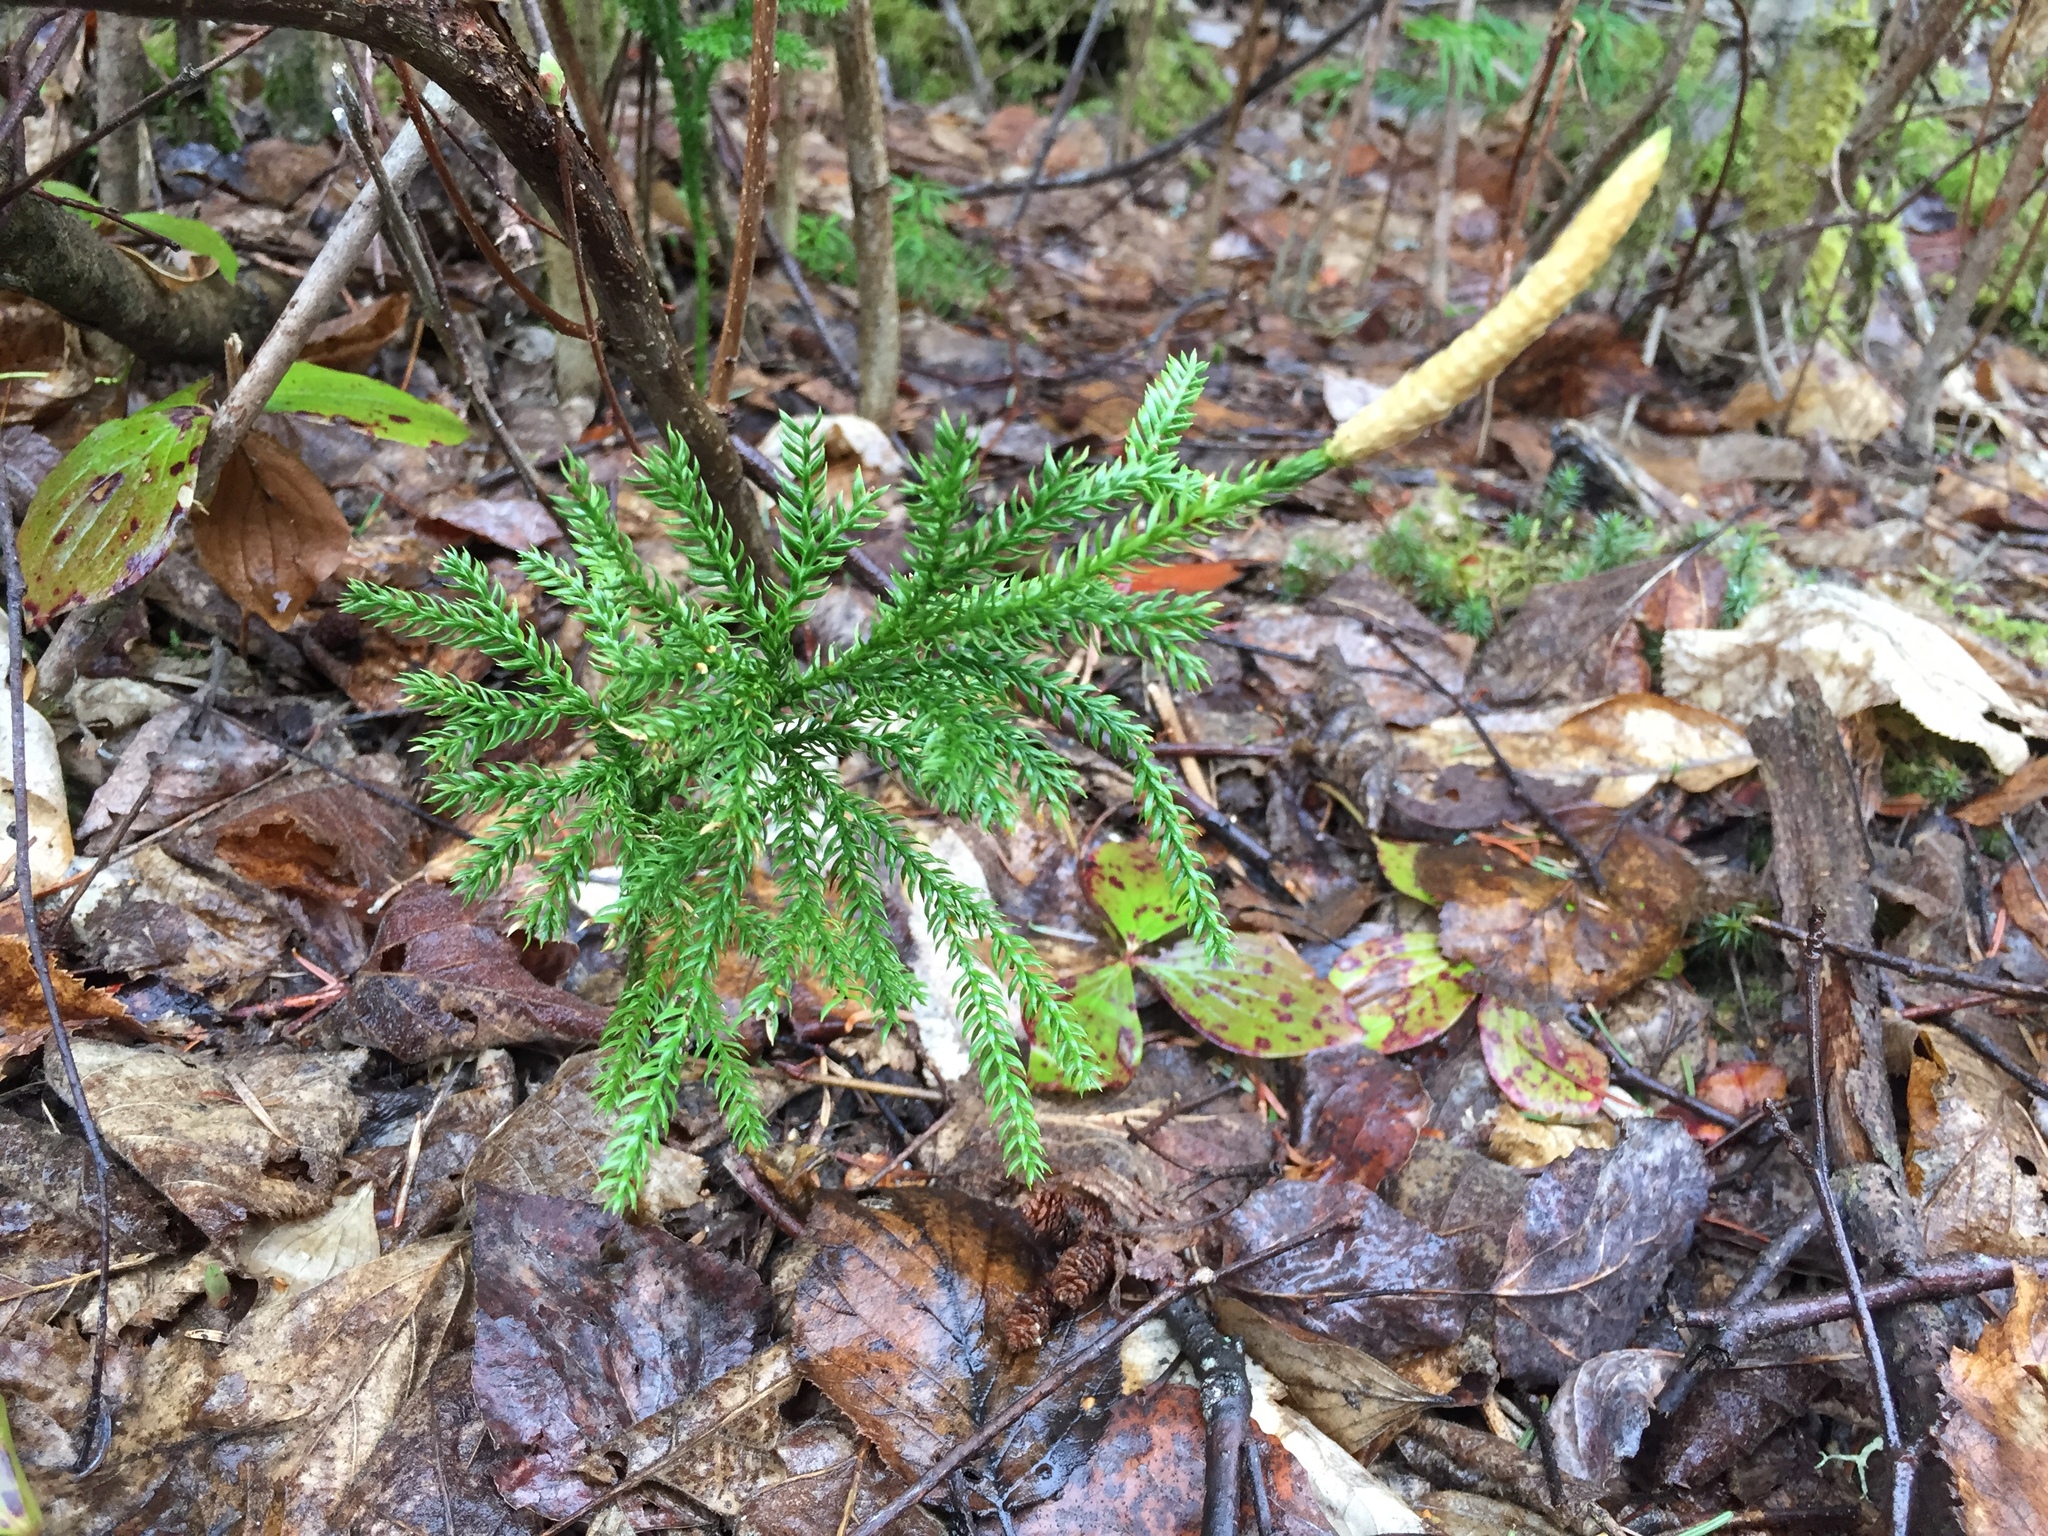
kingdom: Plantae
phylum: Tracheophyta
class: Lycopodiopsida
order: Lycopodiales
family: Lycopodiaceae
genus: Dendrolycopodium
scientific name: Dendrolycopodium dendroideum
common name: Northern tree-clubmoss
